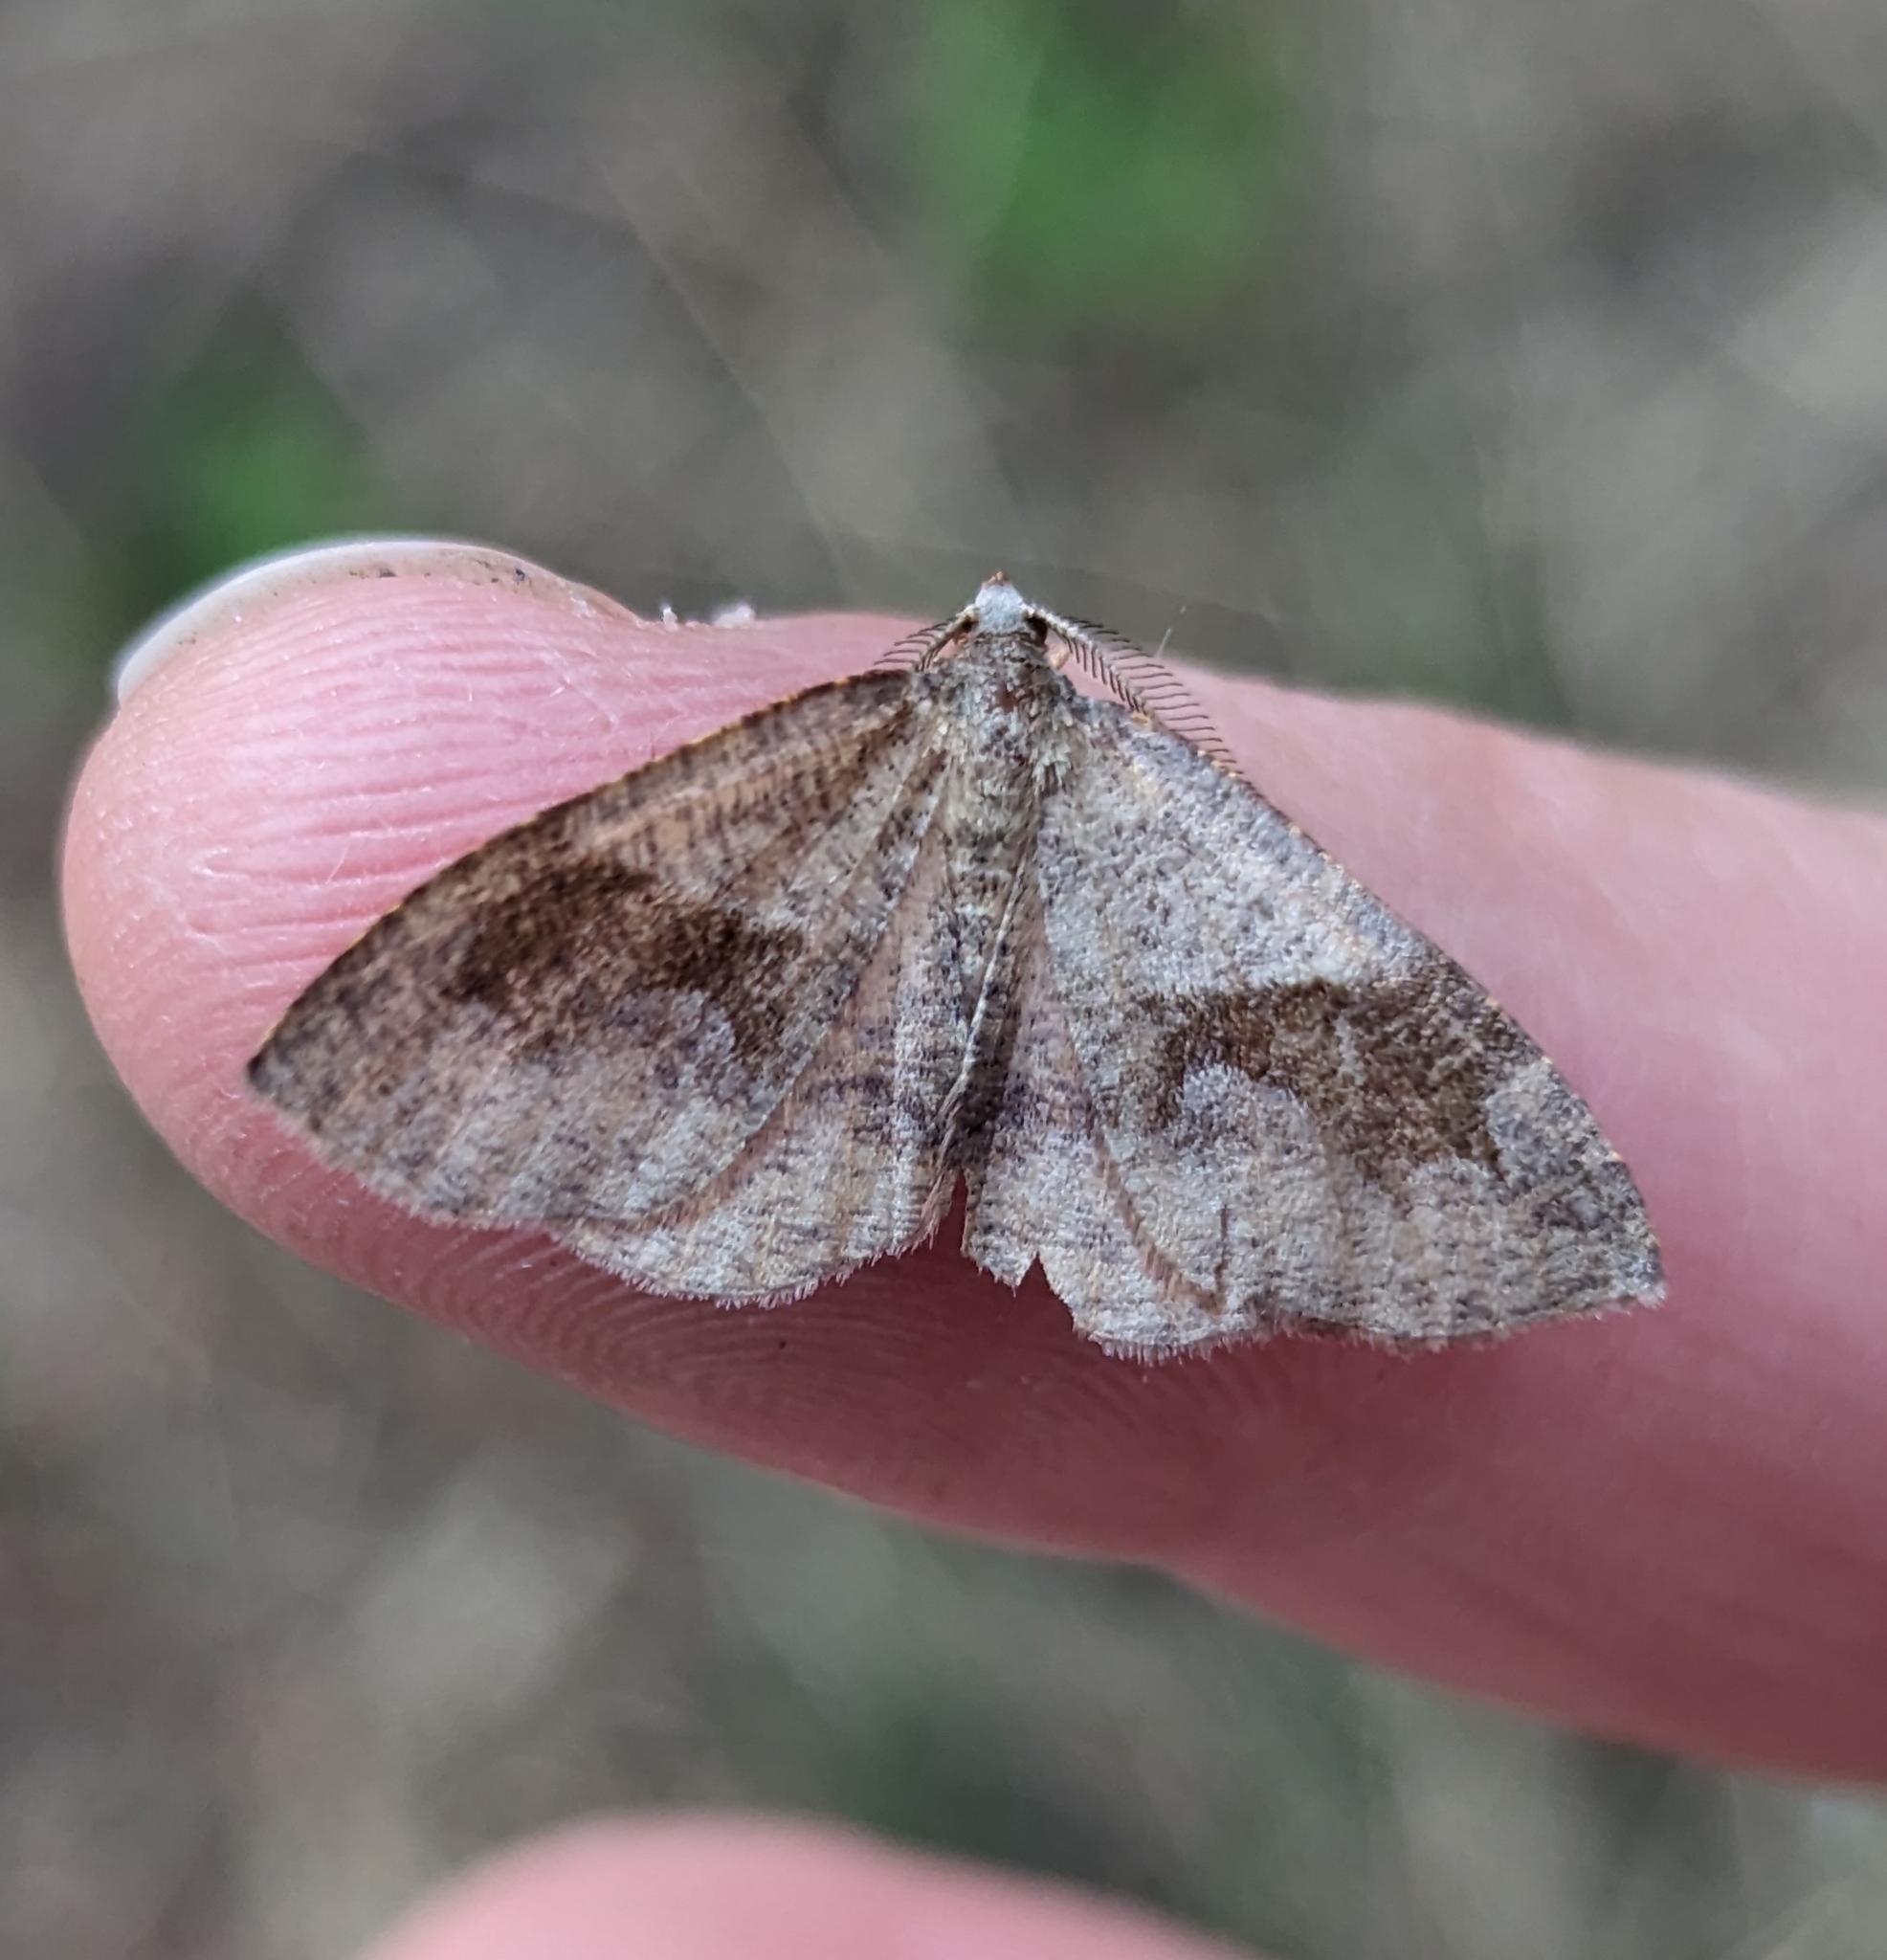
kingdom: Animalia
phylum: Arthropoda
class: Insecta
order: Lepidoptera
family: Geometridae
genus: Plagodis
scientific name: Plagodis pulveraria
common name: Barred umber
